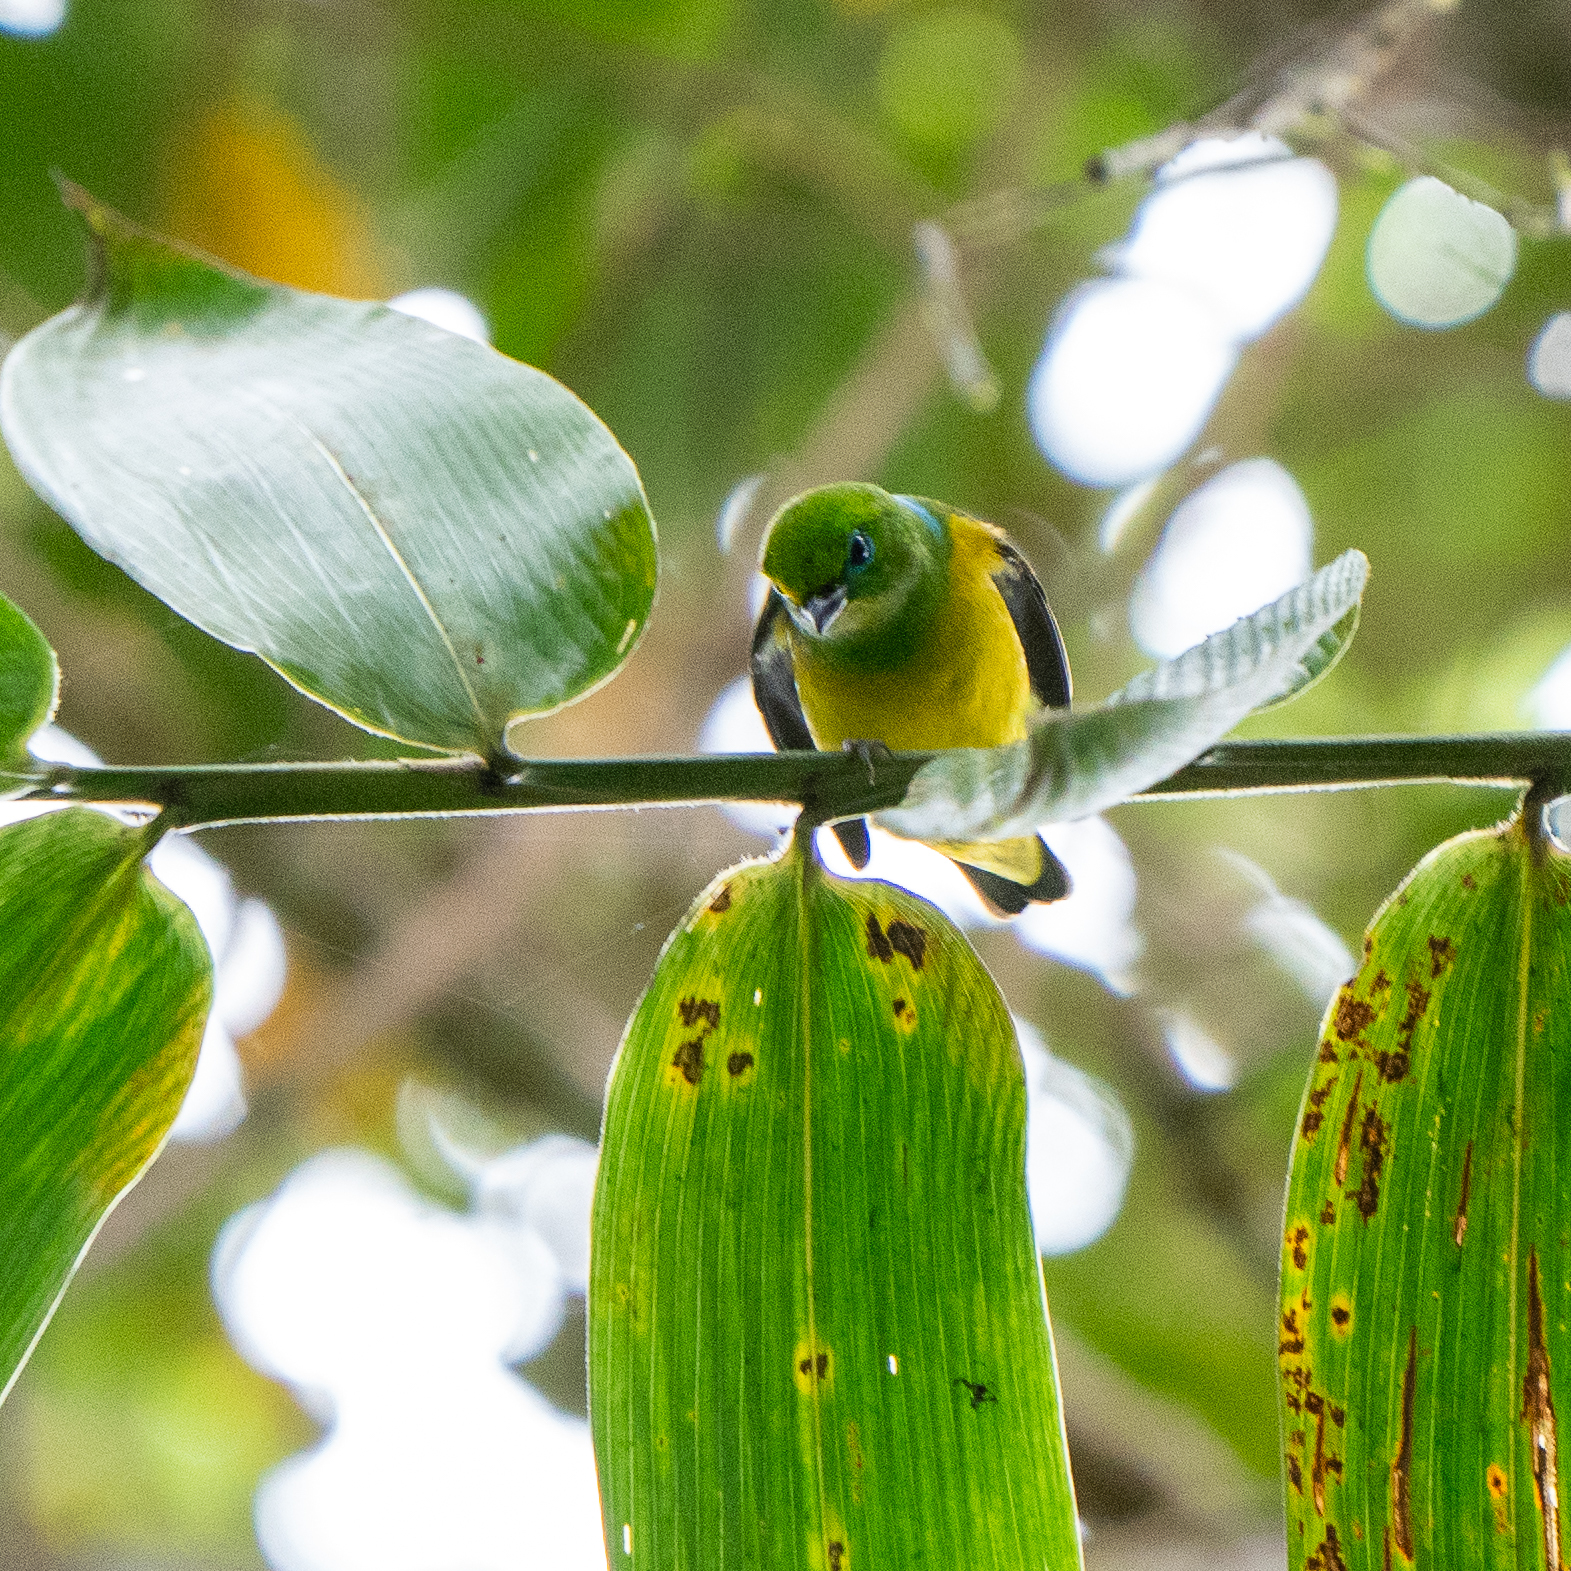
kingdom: Animalia
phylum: Chordata
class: Aves
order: Passeriformes
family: Fringillidae
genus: Chlorophonia
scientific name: Chlorophonia cyanea
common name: Blue-naped chlorophonia
